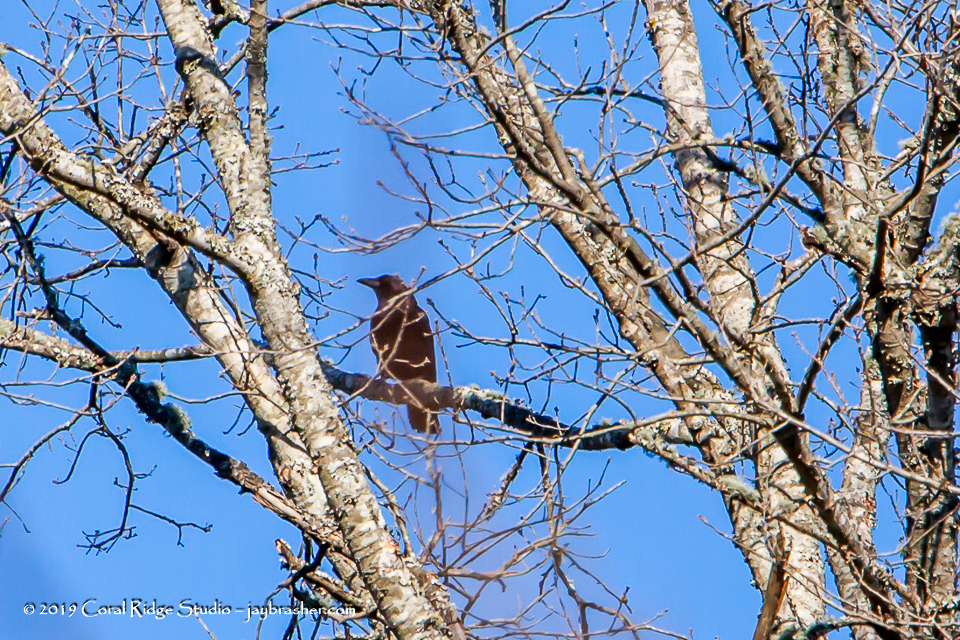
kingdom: Animalia
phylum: Chordata
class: Aves
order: Passeriformes
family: Corvidae
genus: Corvus
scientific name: Corvus brachyrhynchos
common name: American crow
